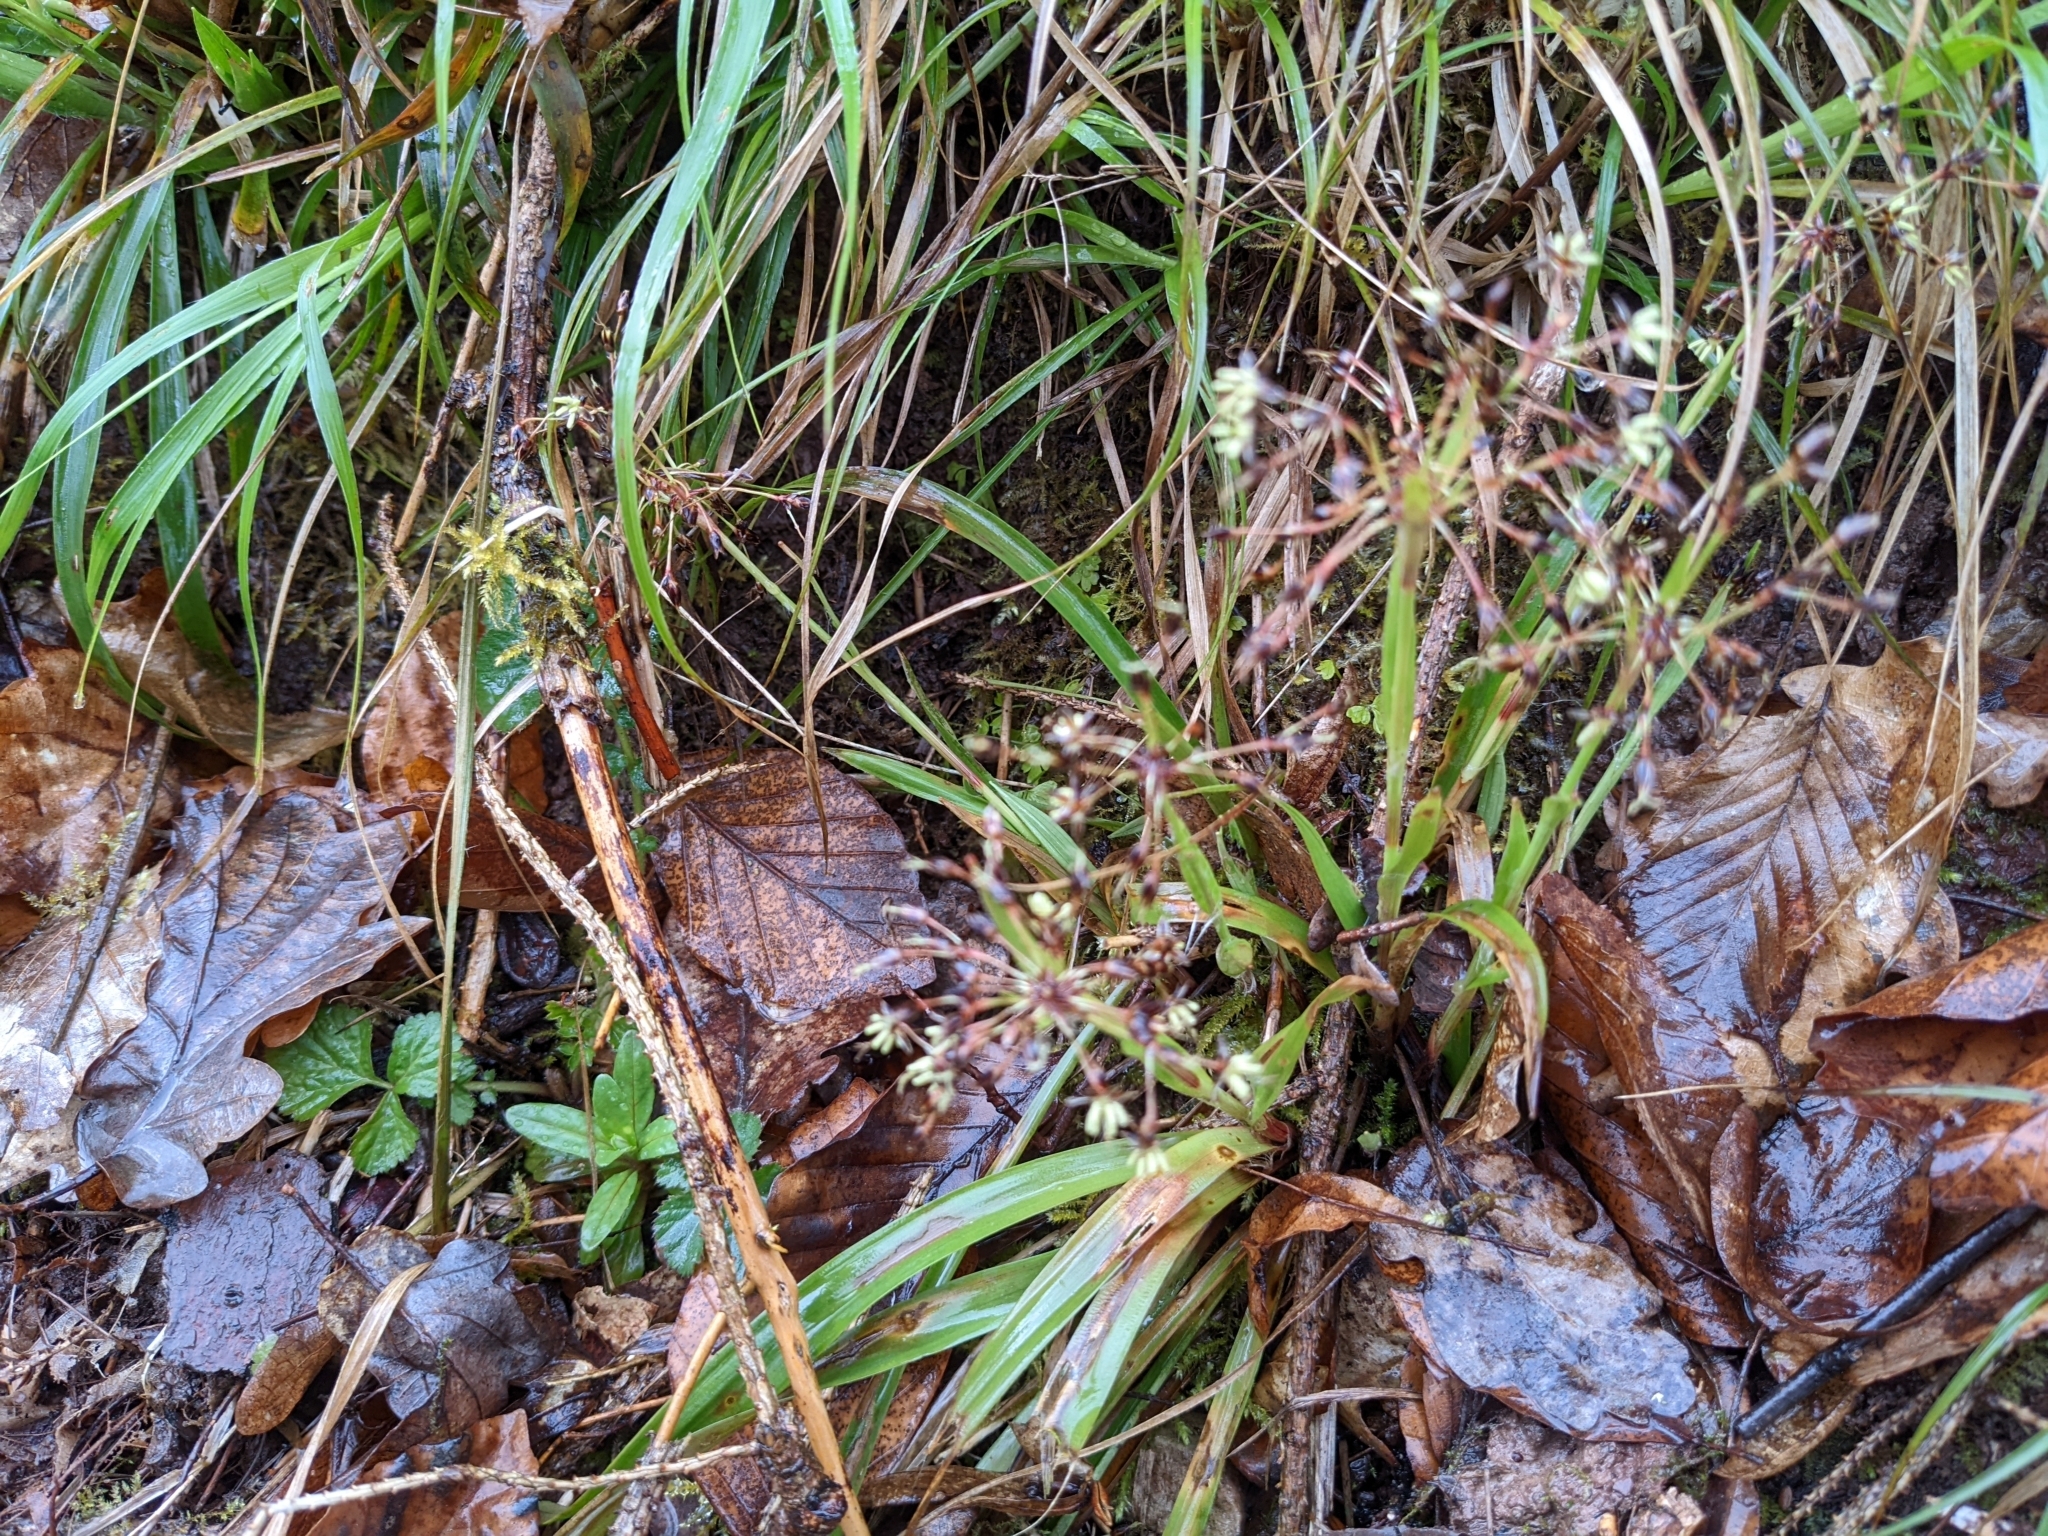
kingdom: Plantae
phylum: Tracheophyta
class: Liliopsida
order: Poales
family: Juncaceae
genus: Luzula
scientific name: Luzula pilosa
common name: Hairy wood-rush
